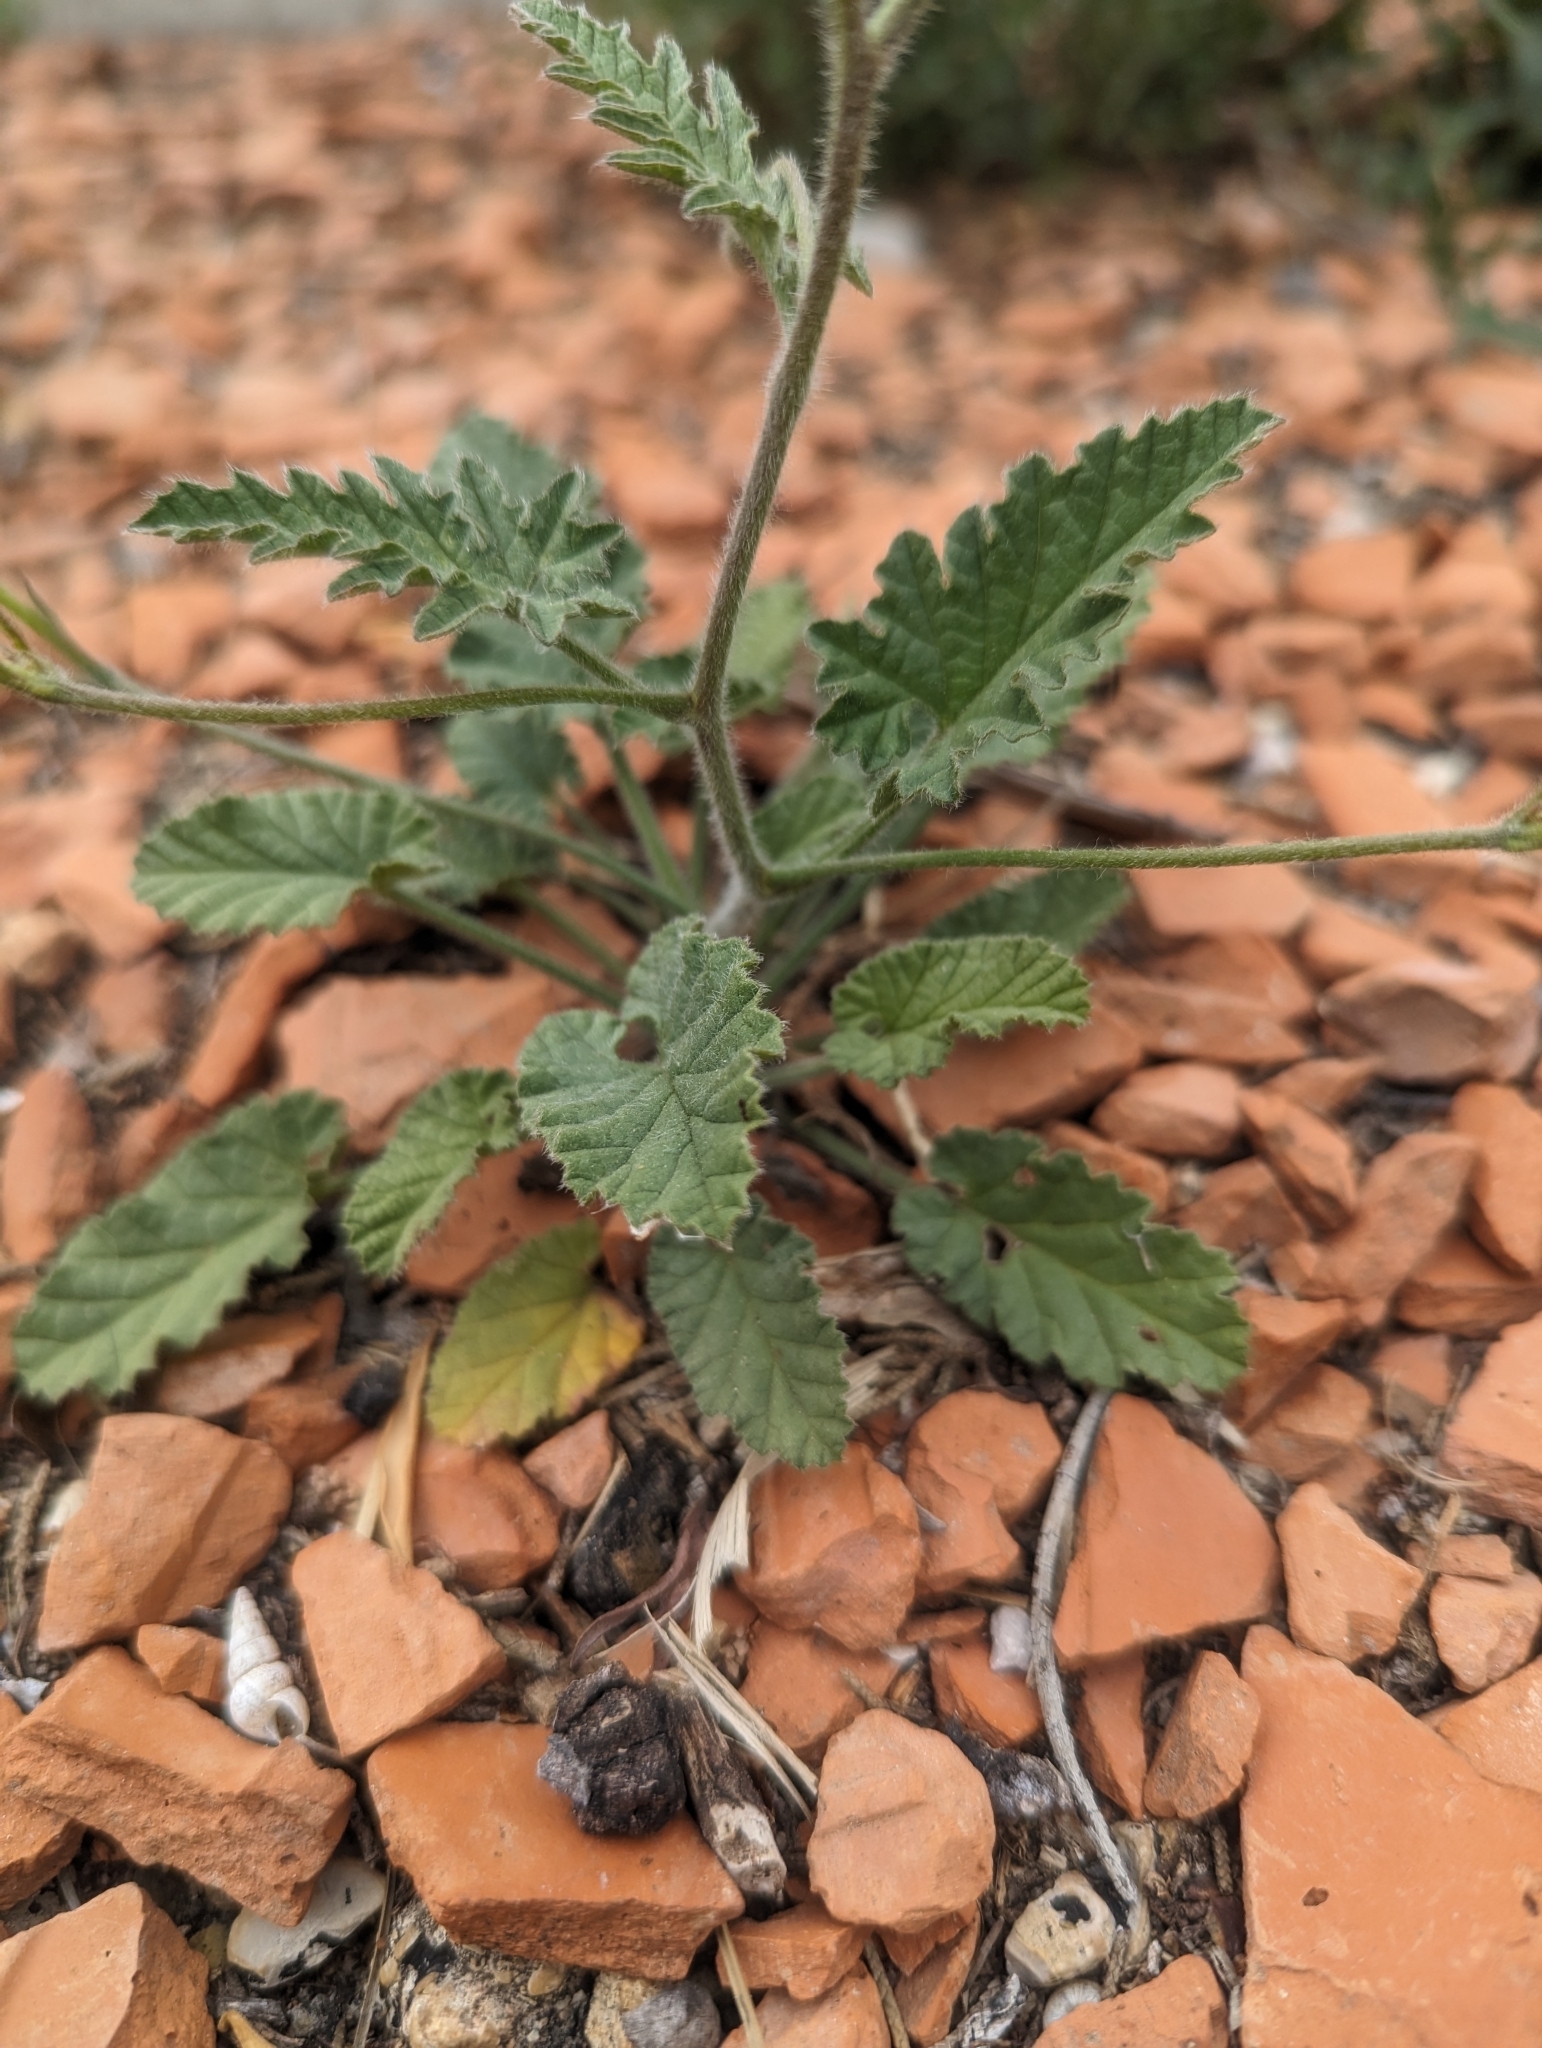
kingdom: Plantae
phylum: Tracheophyta
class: Magnoliopsida
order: Solanales
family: Convolvulaceae
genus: Convolvulus
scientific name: Convolvulus althaeoides
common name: Mallow bindweed
